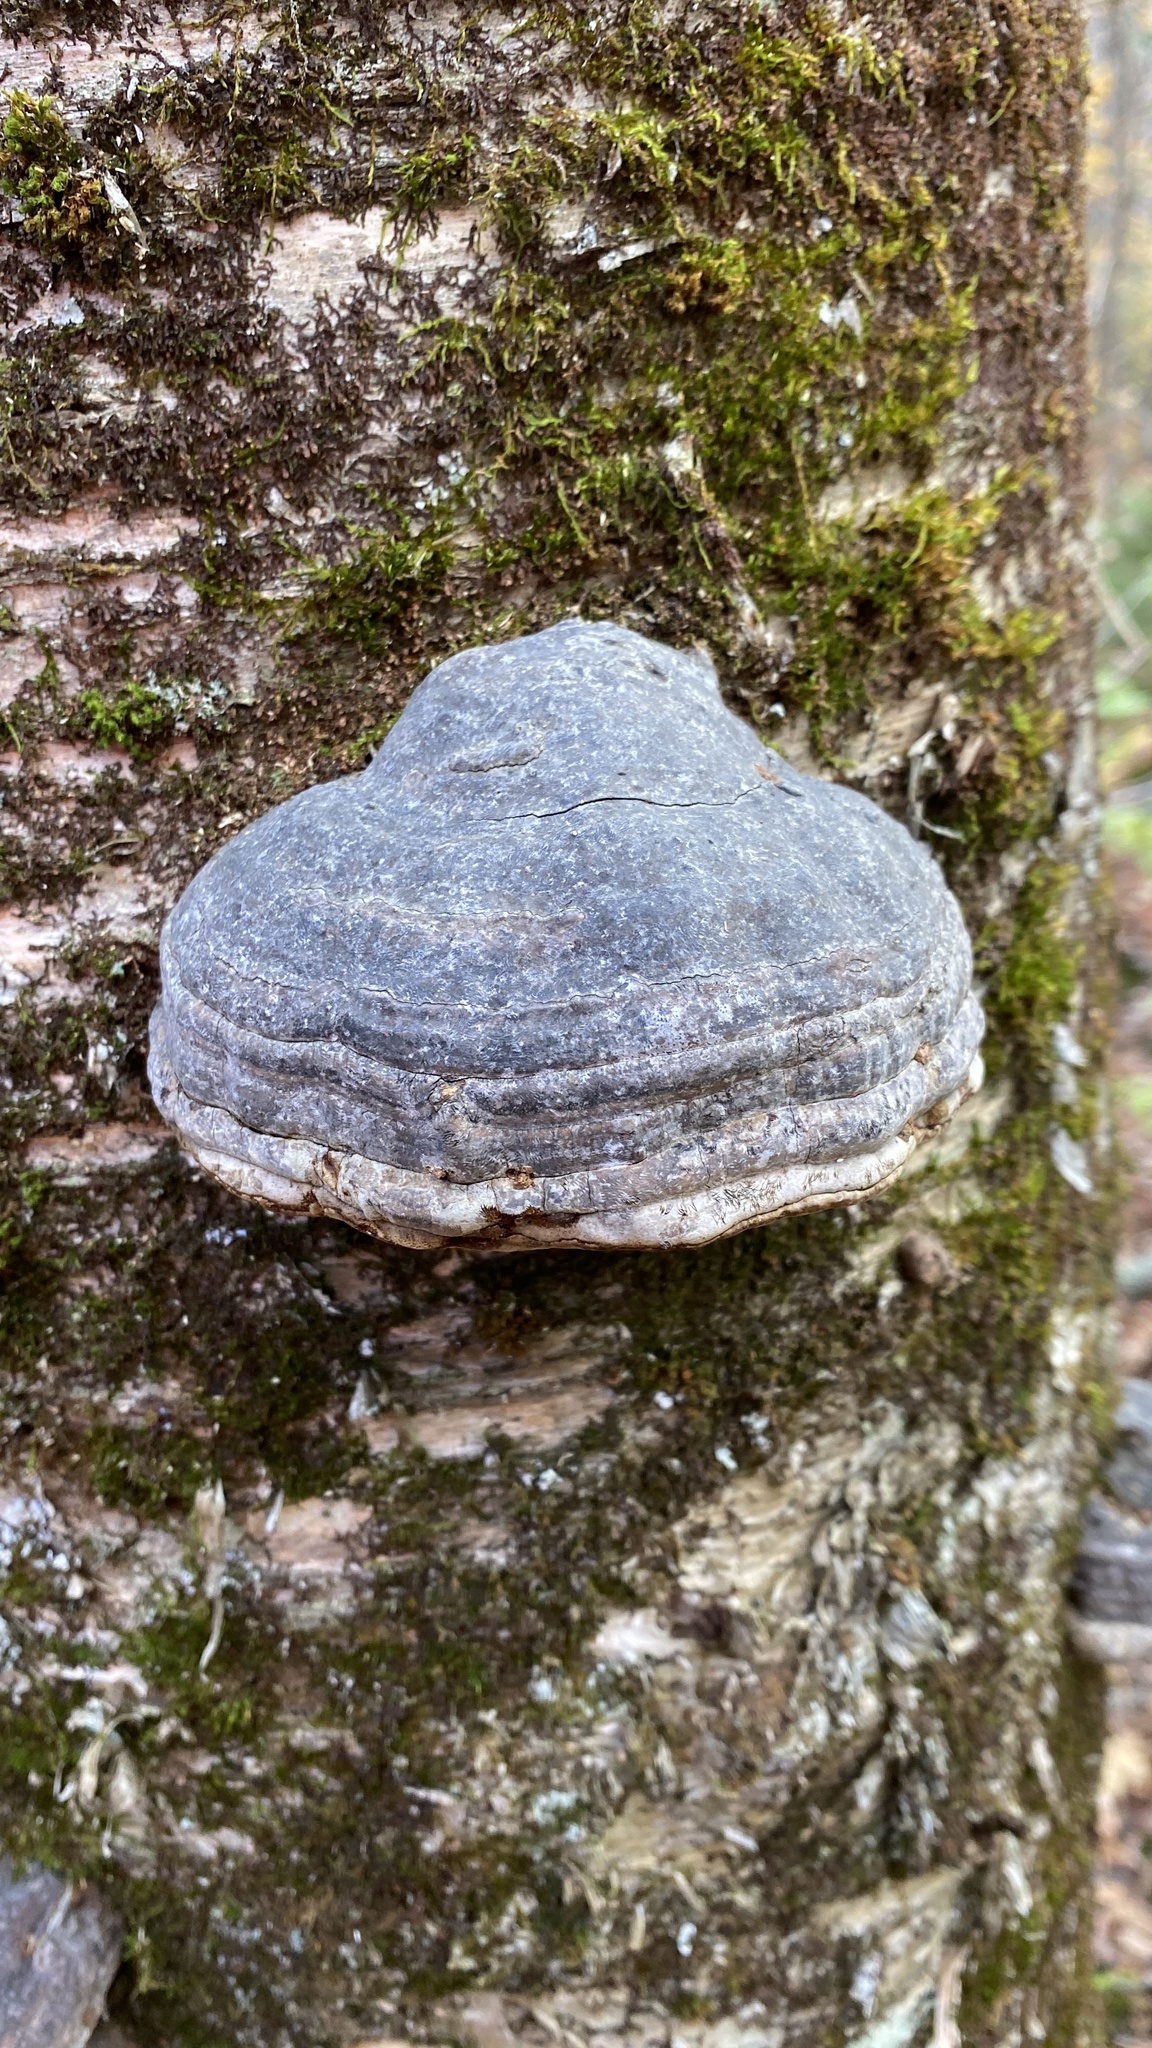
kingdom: Fungi
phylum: Basidiomycota
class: Agaricomycetes
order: Polyporales
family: Polyporaceae
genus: Fomes
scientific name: Fomes fomentarius
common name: Hoof fungus
